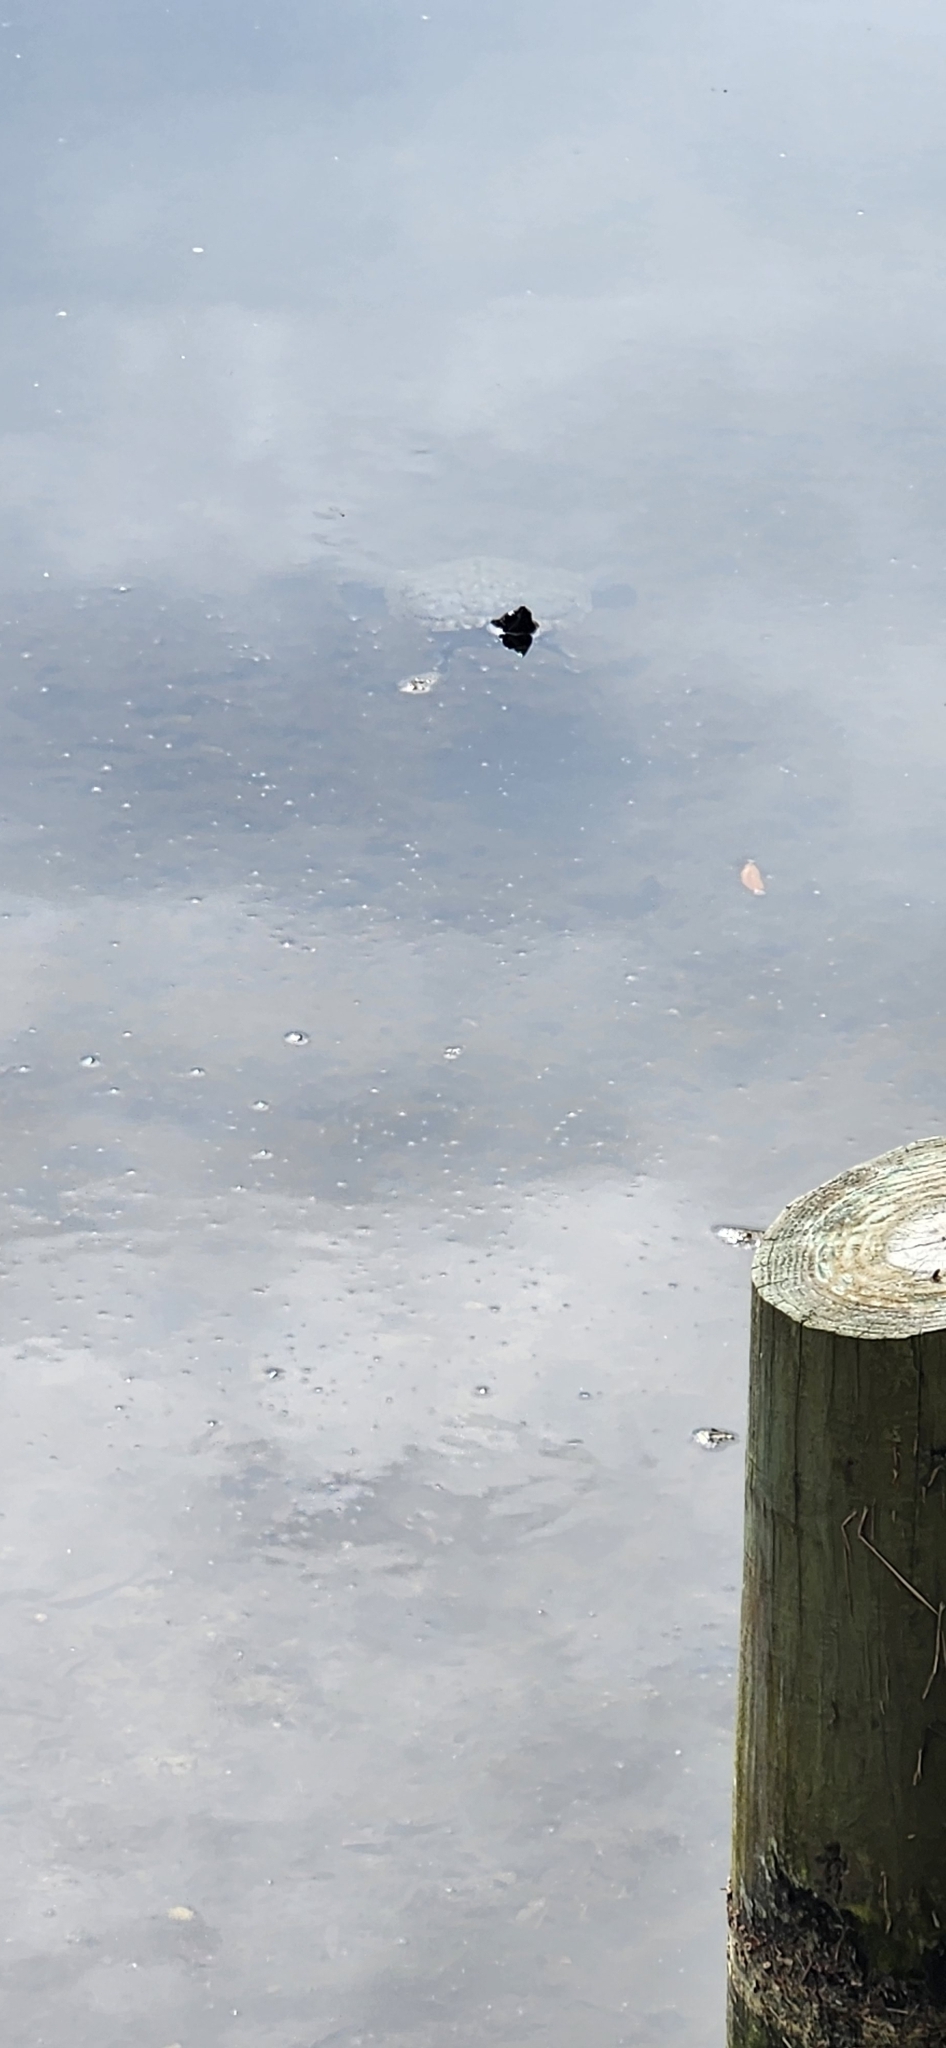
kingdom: Animalia
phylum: Chordata
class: Testudines
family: Emydidae
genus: Trachemys
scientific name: Trachemys scripta
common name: Slider
